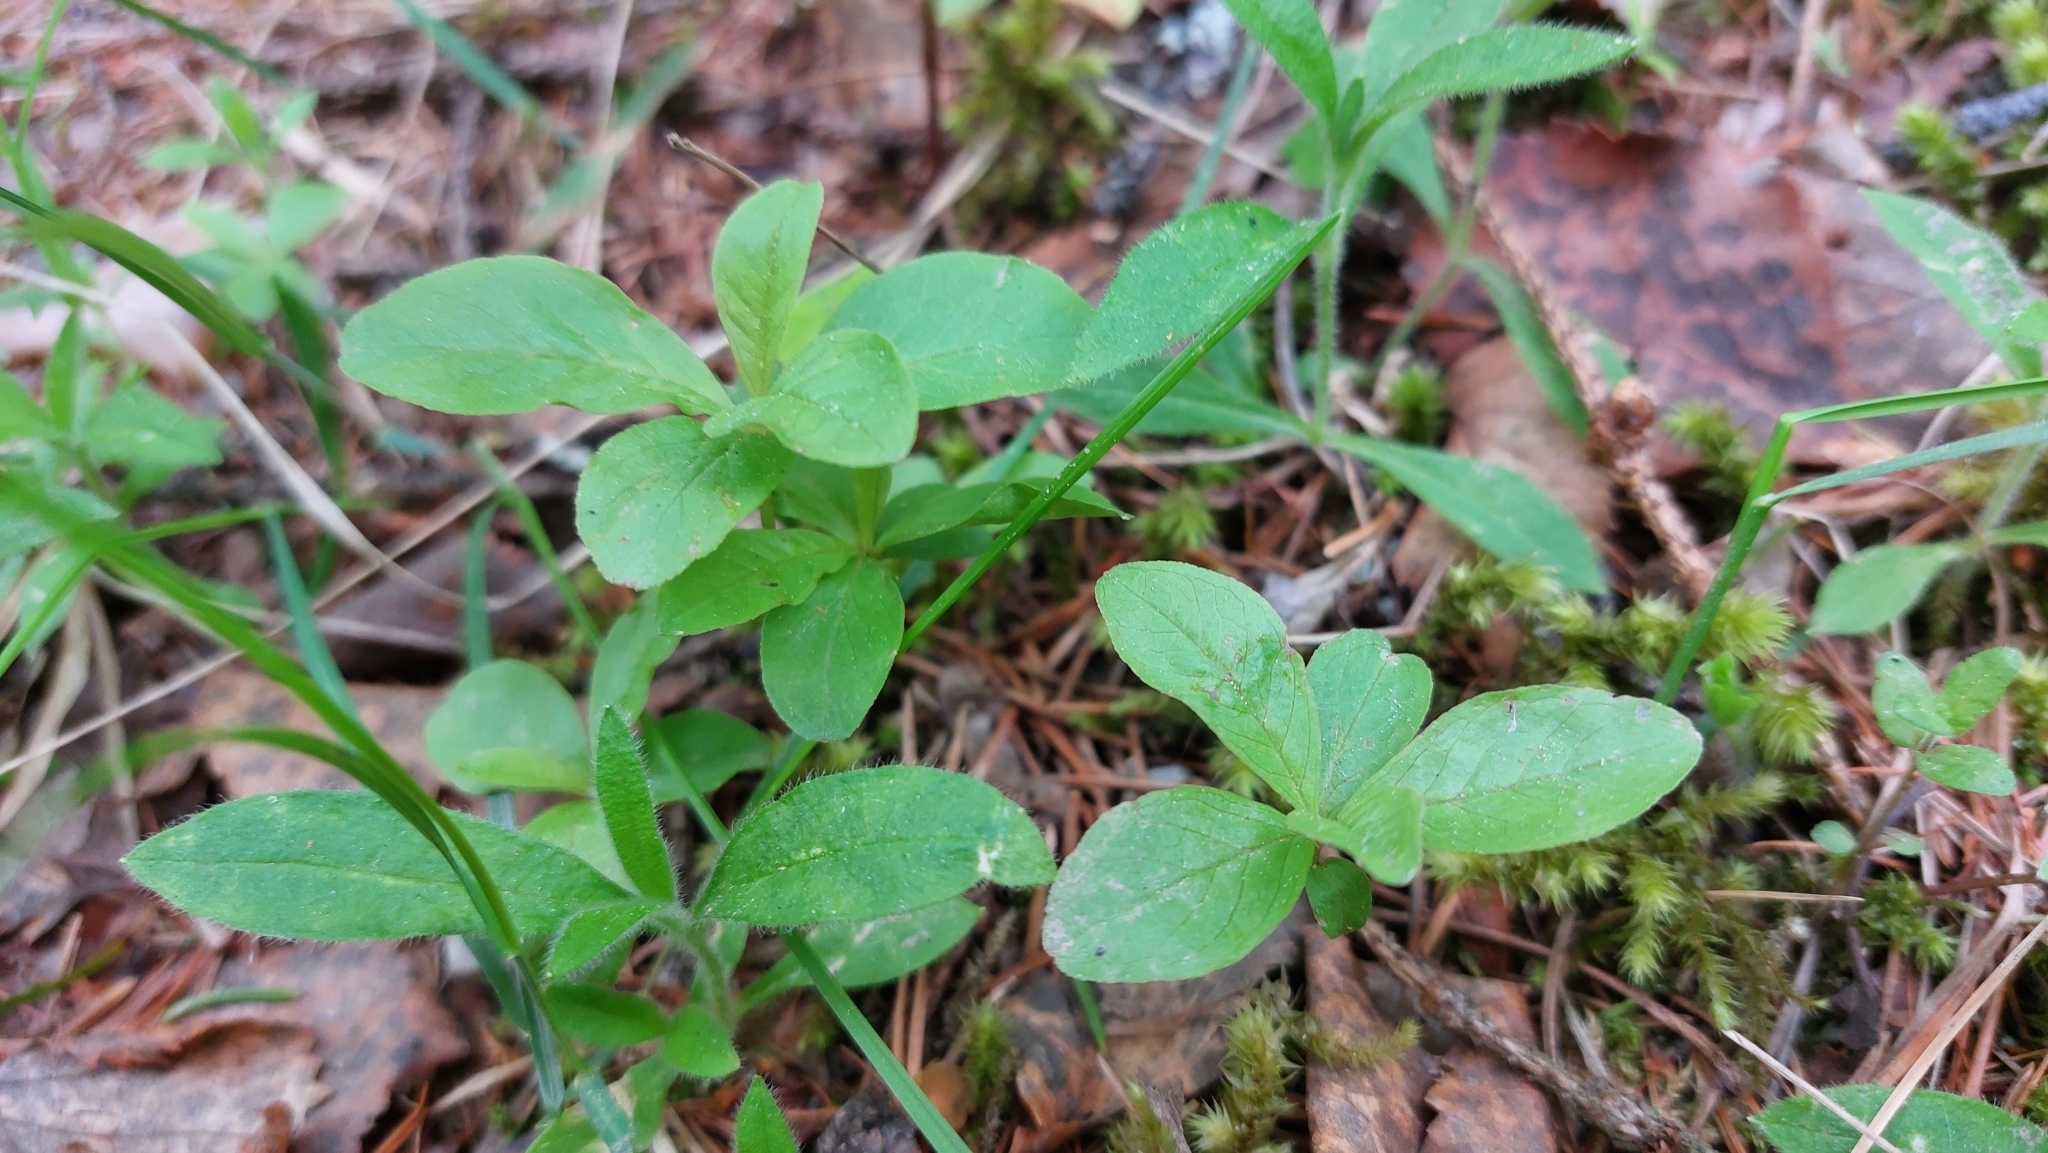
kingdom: Plantae
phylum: Tracheophyta
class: Magnoliopsida
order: Ericales
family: Primulaceae
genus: Lysimachia
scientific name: Lysimachia europaea
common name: Arctic starflower
